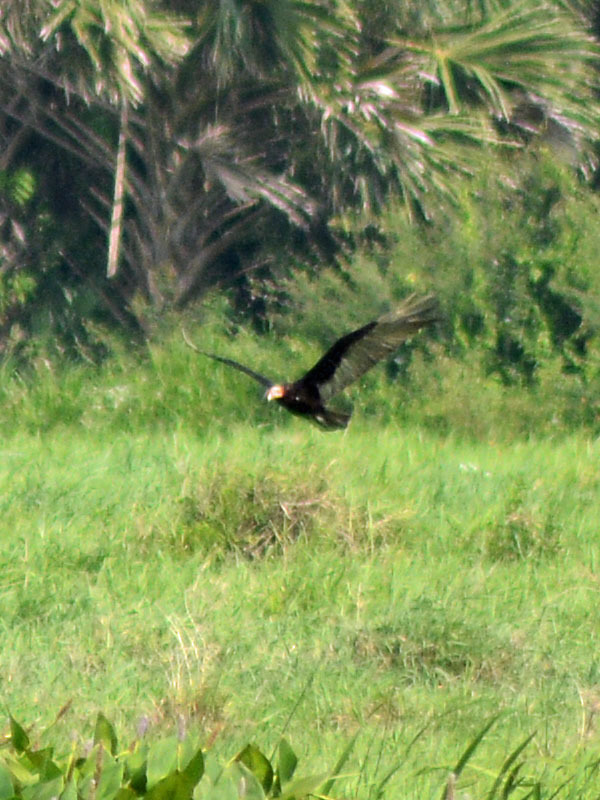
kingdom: Animalia
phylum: Chordata
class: Aves
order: Accipitriformes
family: Cathartidae
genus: Cathartes
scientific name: Cathartes burrovianus
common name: Lesser yellow-headed vulture
